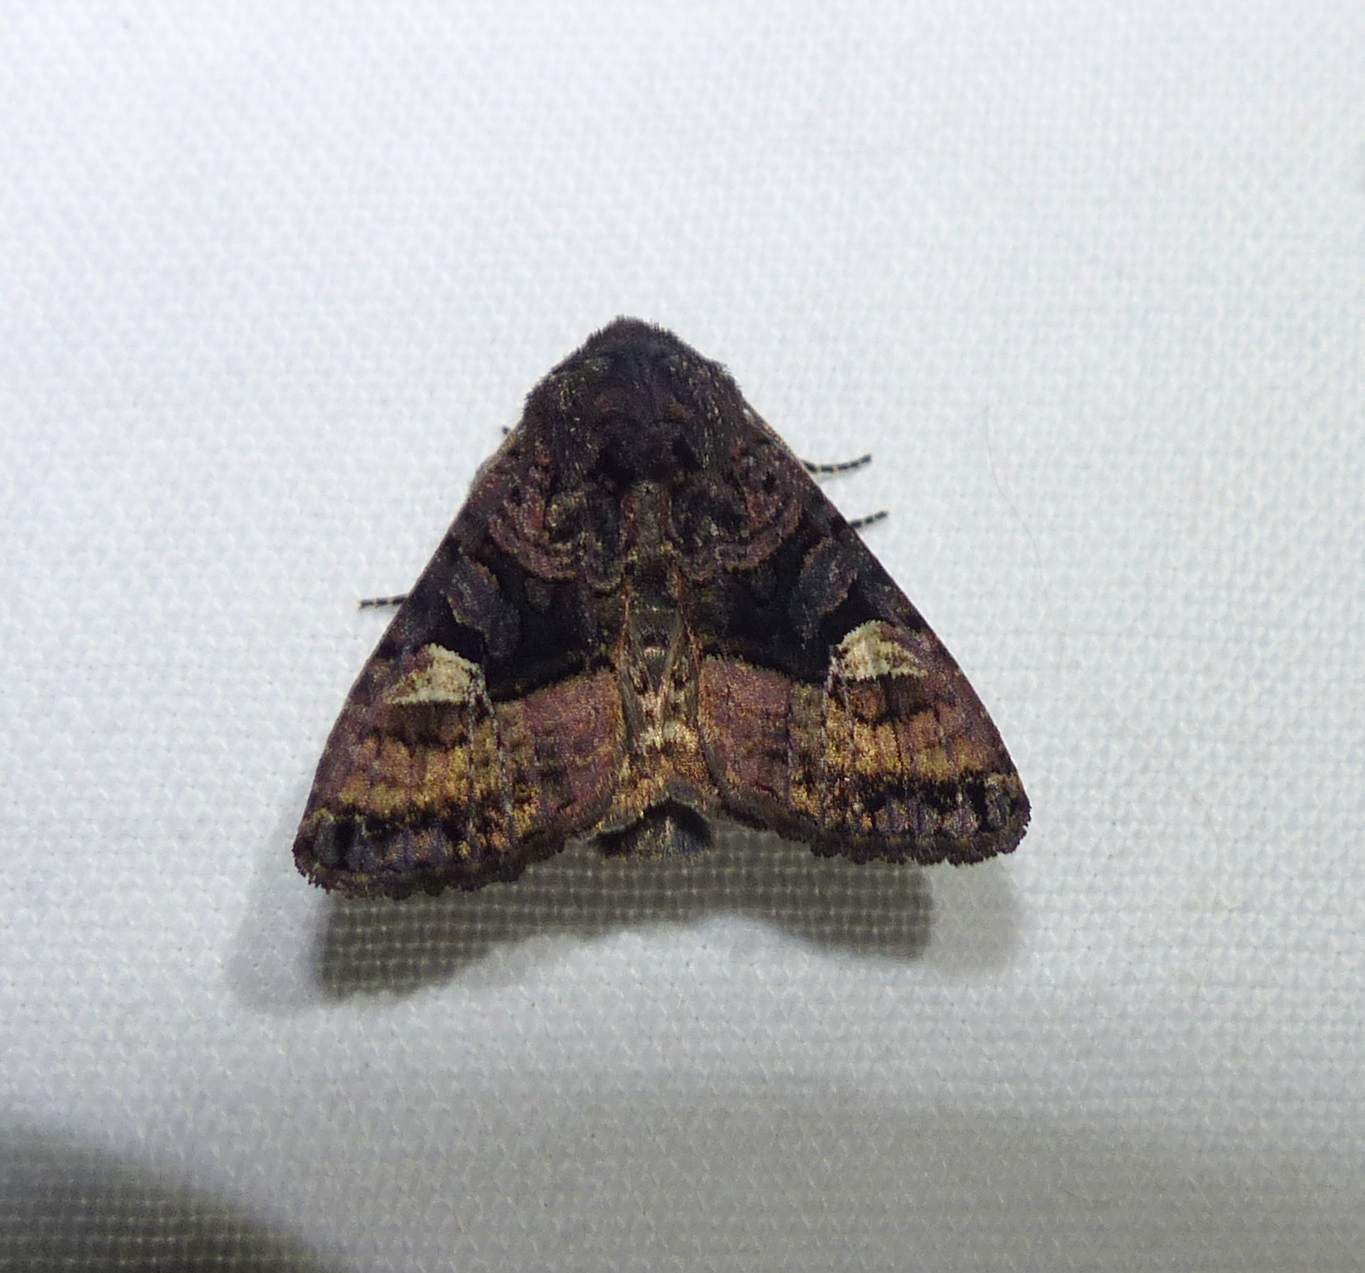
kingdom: Animalia
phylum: Arthropoda
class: Insecta
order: Lepidoptera
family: Noctuidae
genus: Euplexia
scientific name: Euplexia benesimilis
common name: American angle shades
